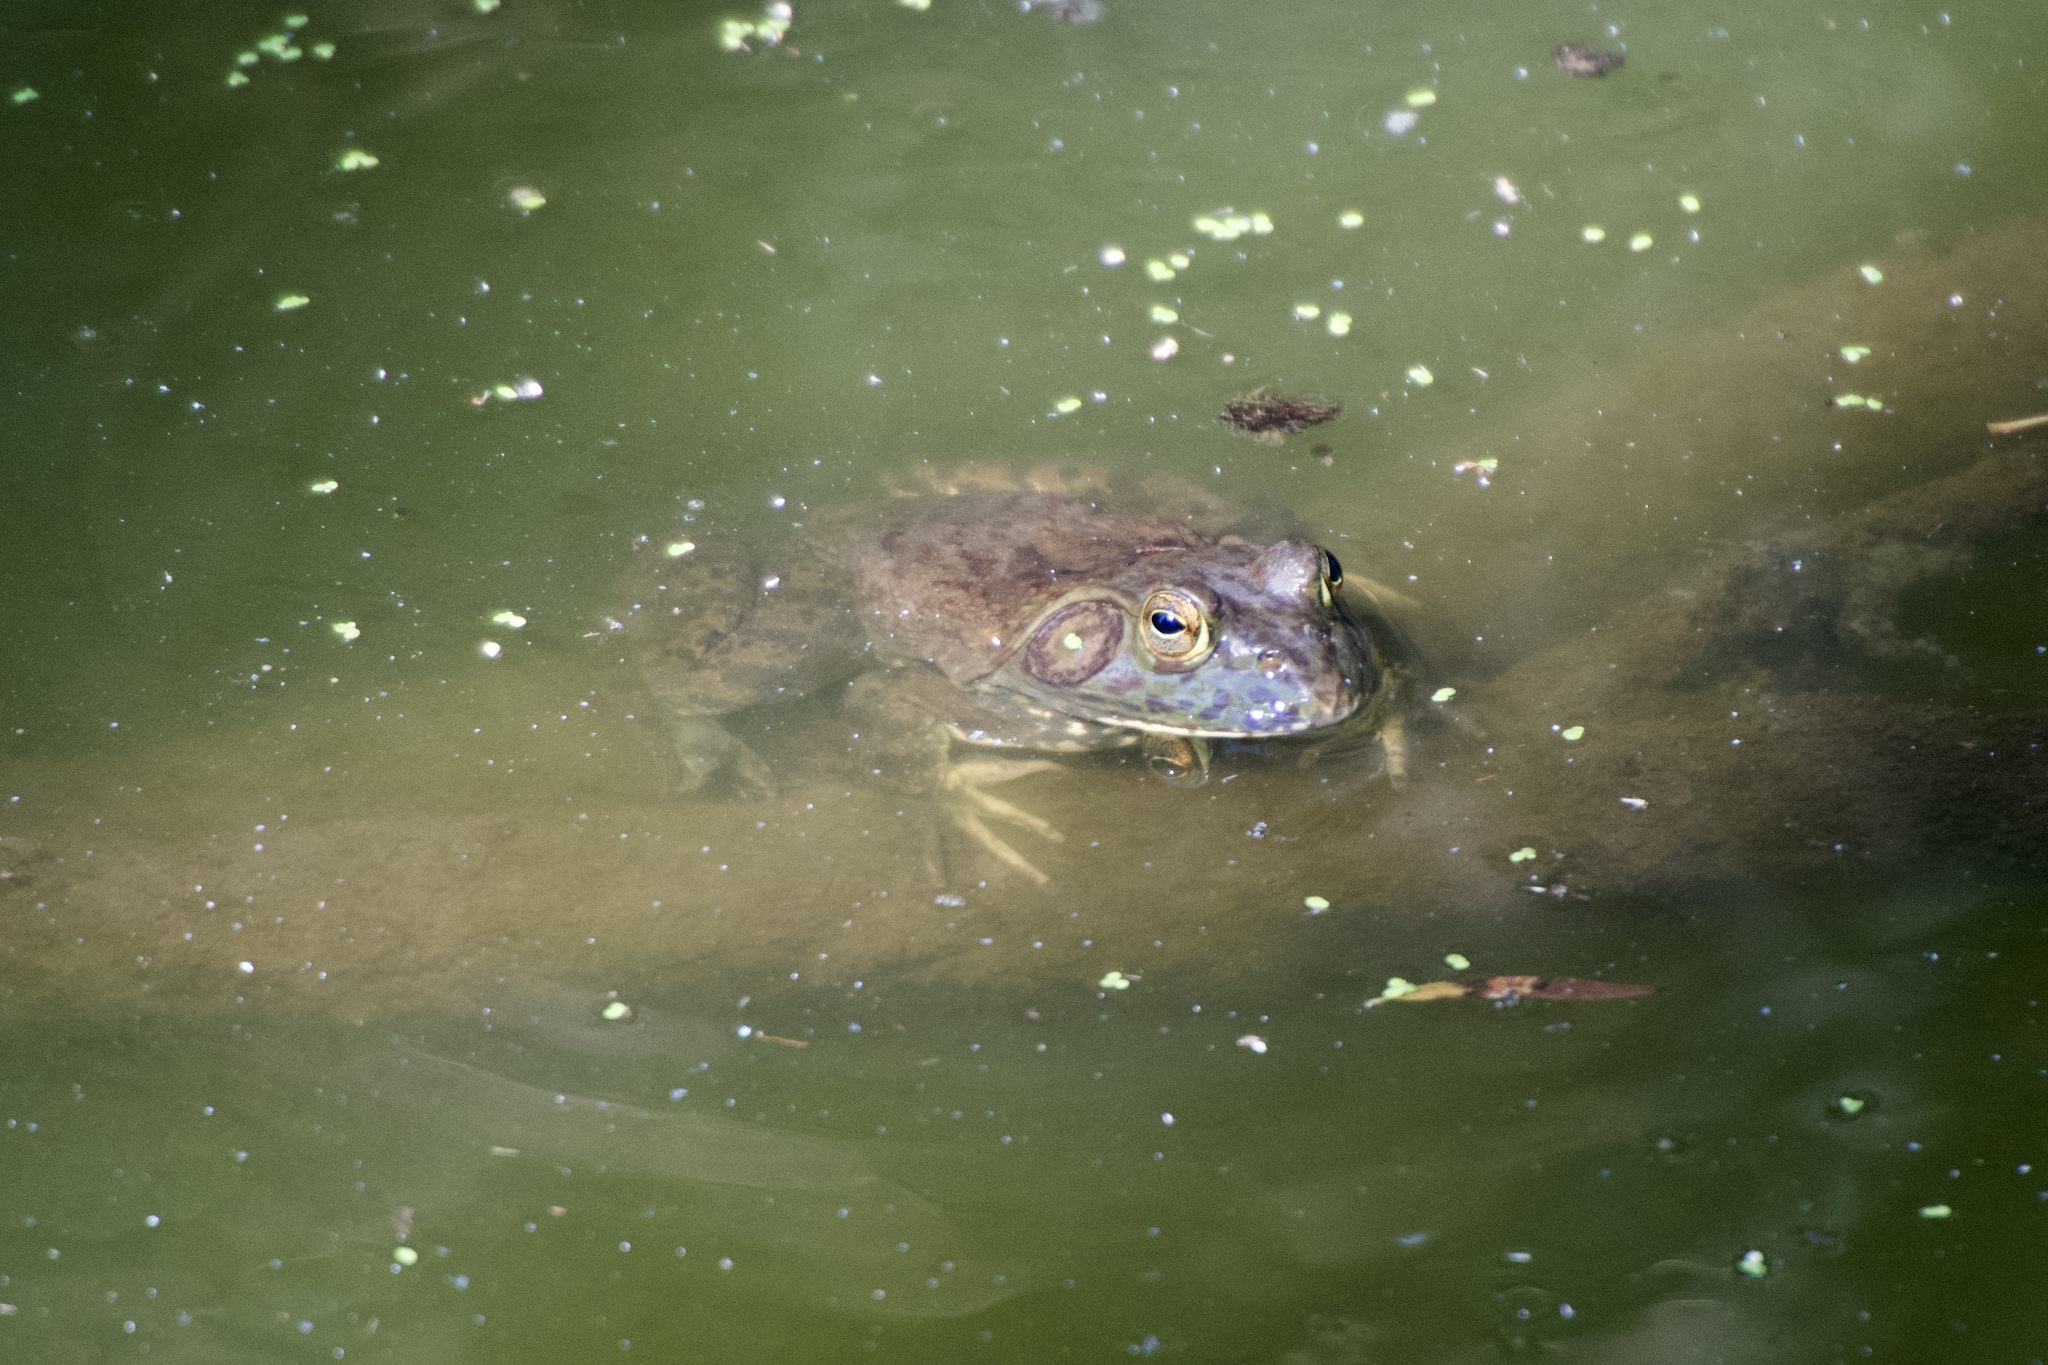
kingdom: Animalia
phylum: Chordata
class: Amphibia
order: Anura
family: Ranidae
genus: Lithobates
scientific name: Lithobates catesbeianus
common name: American bullfrog
